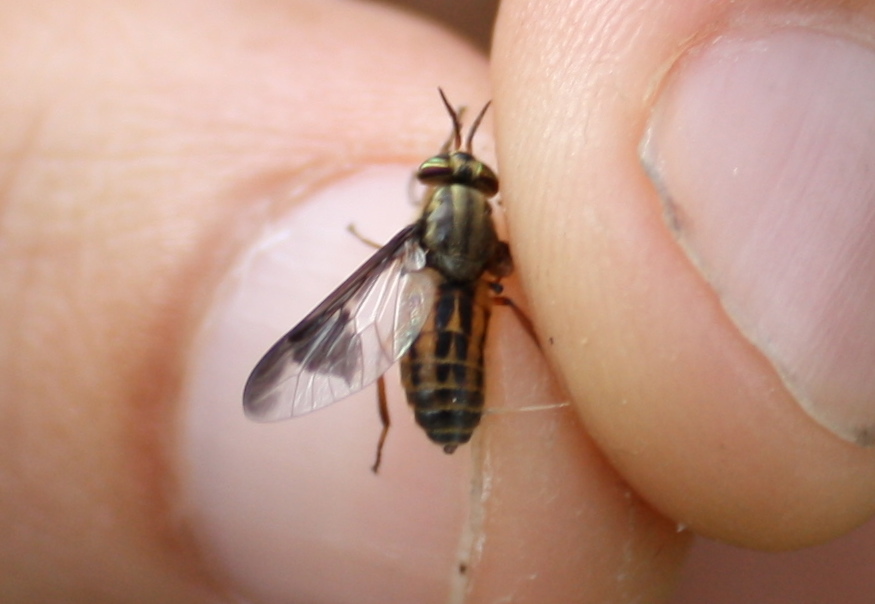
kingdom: Animalia
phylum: Arthropoda
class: Insecta
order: Diptera
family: Tabanidae
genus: Chrysops
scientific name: Chrysops striatus
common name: Striated deer fly
